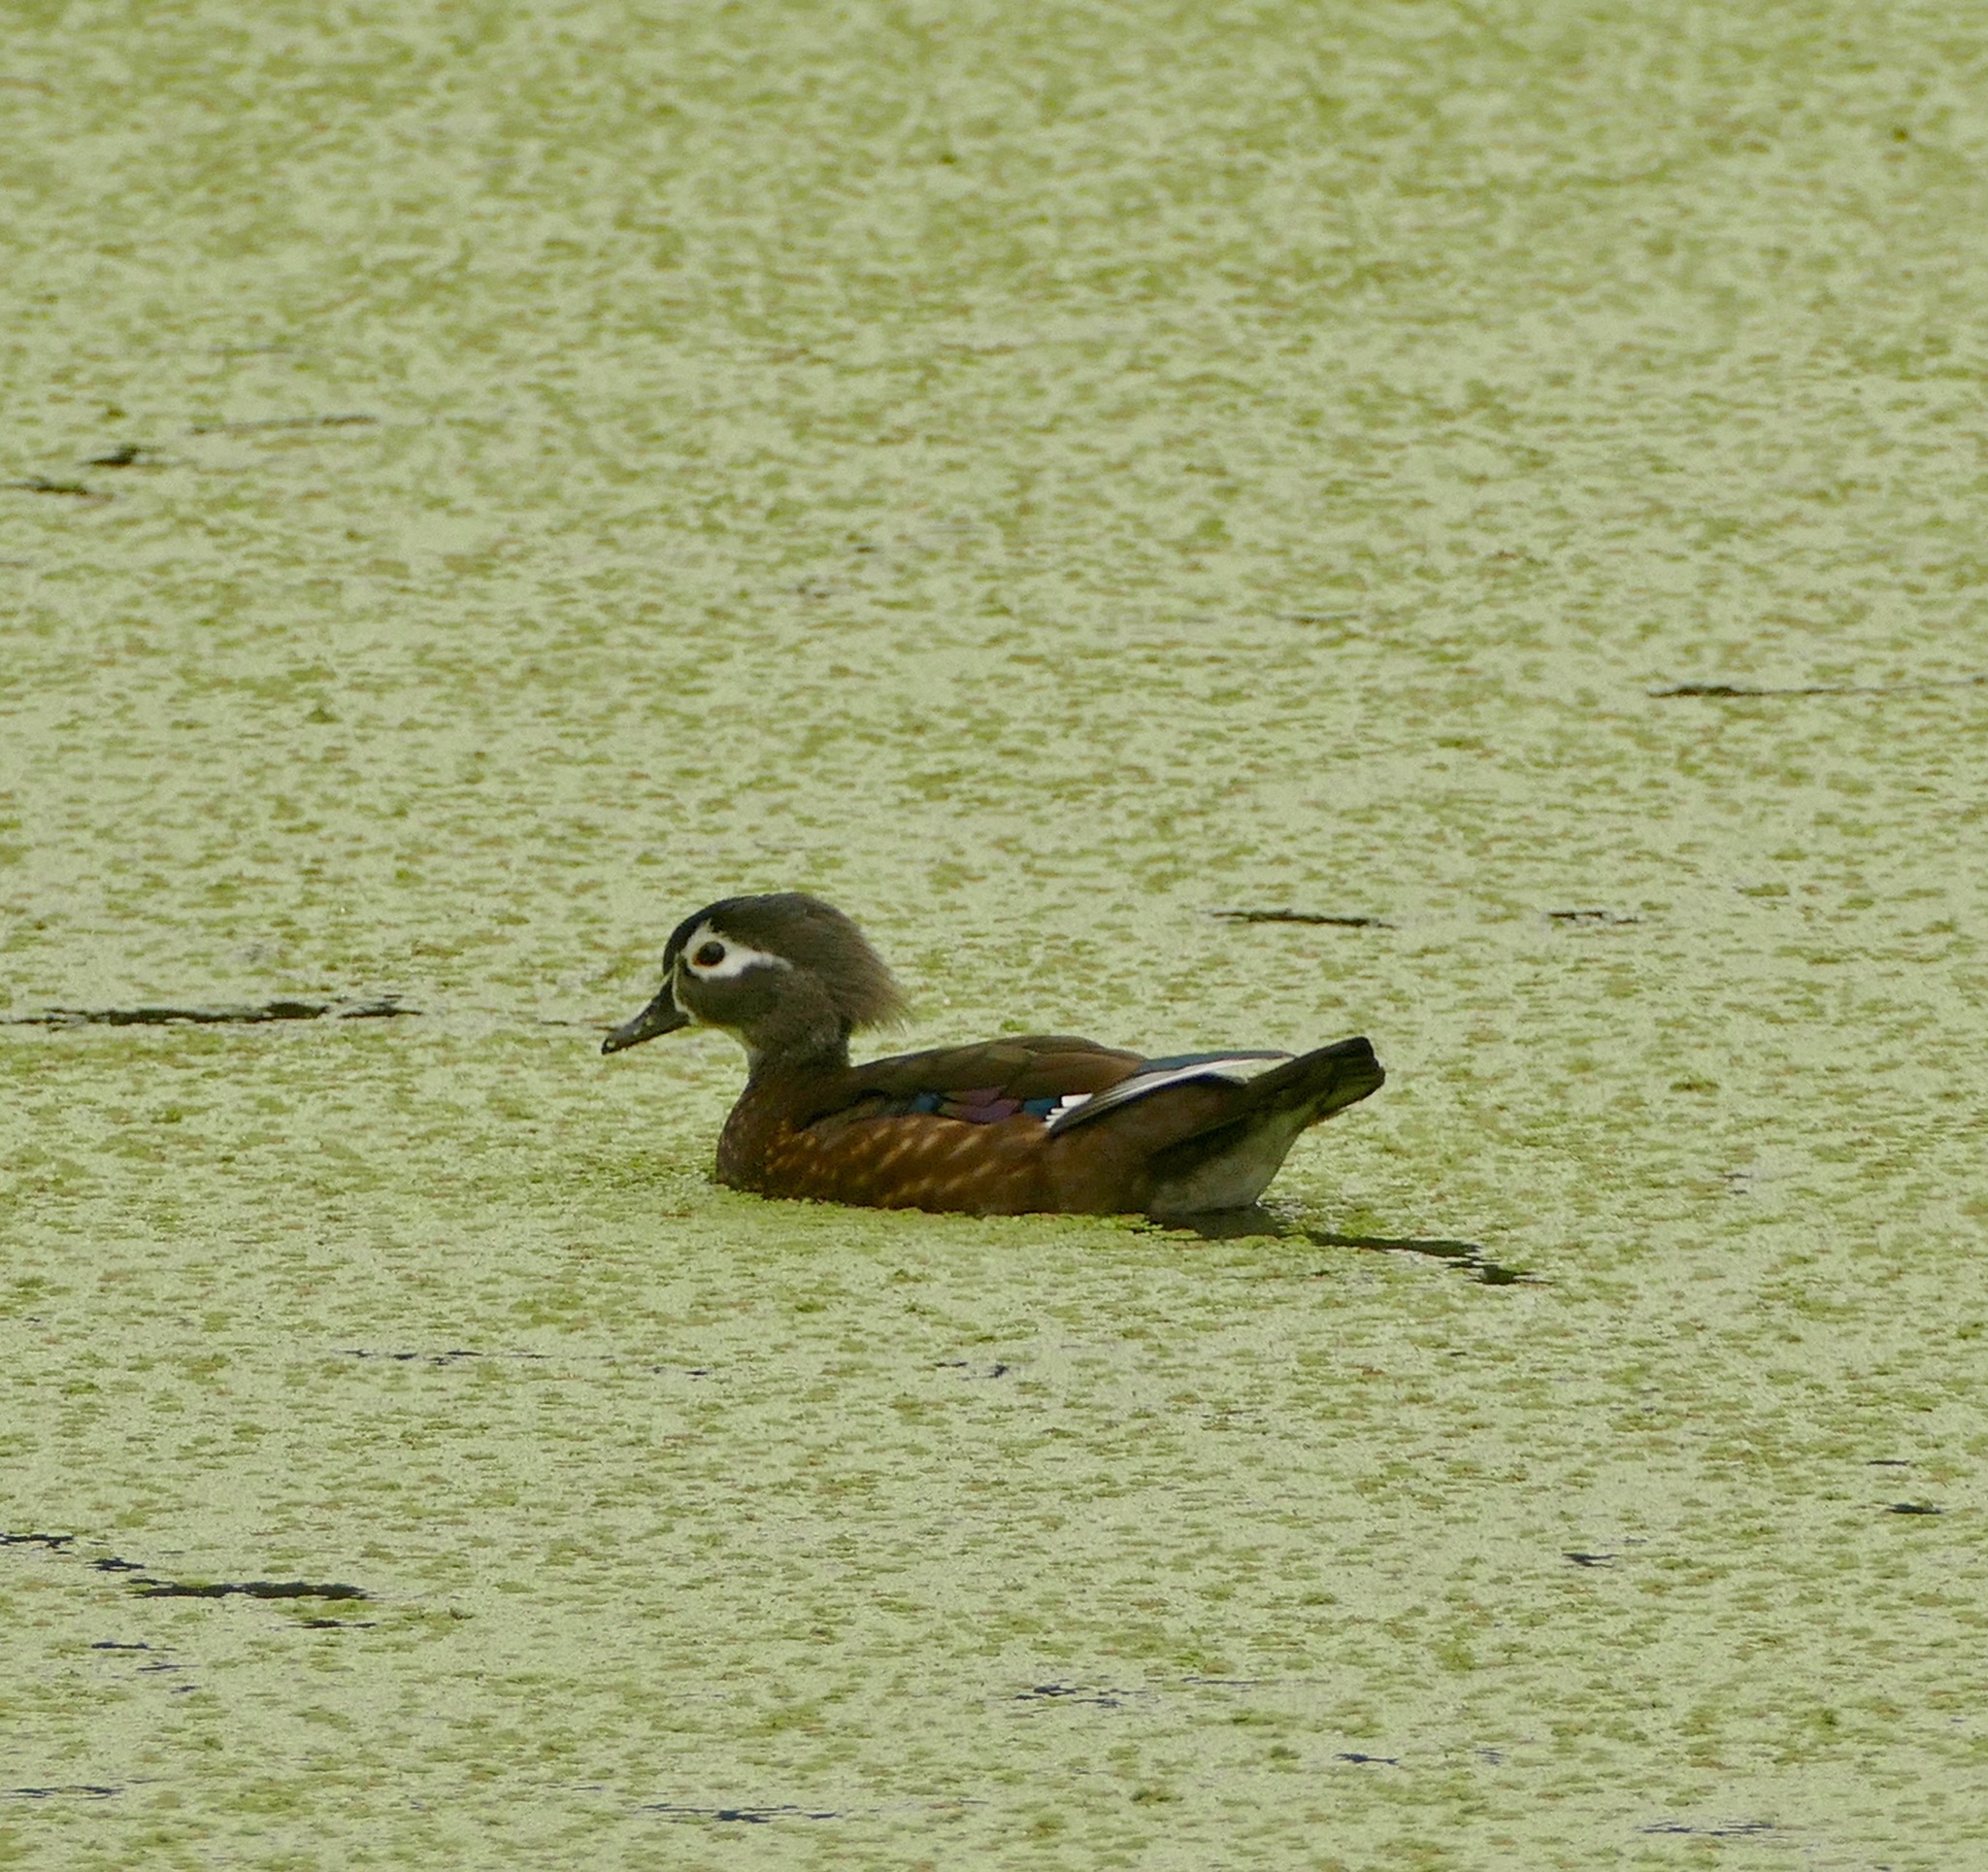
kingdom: Animalia
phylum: Chordata
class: Aves
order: Anseriformes
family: Anatidae
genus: Aix
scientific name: Aix sponsa
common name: Wood duck
